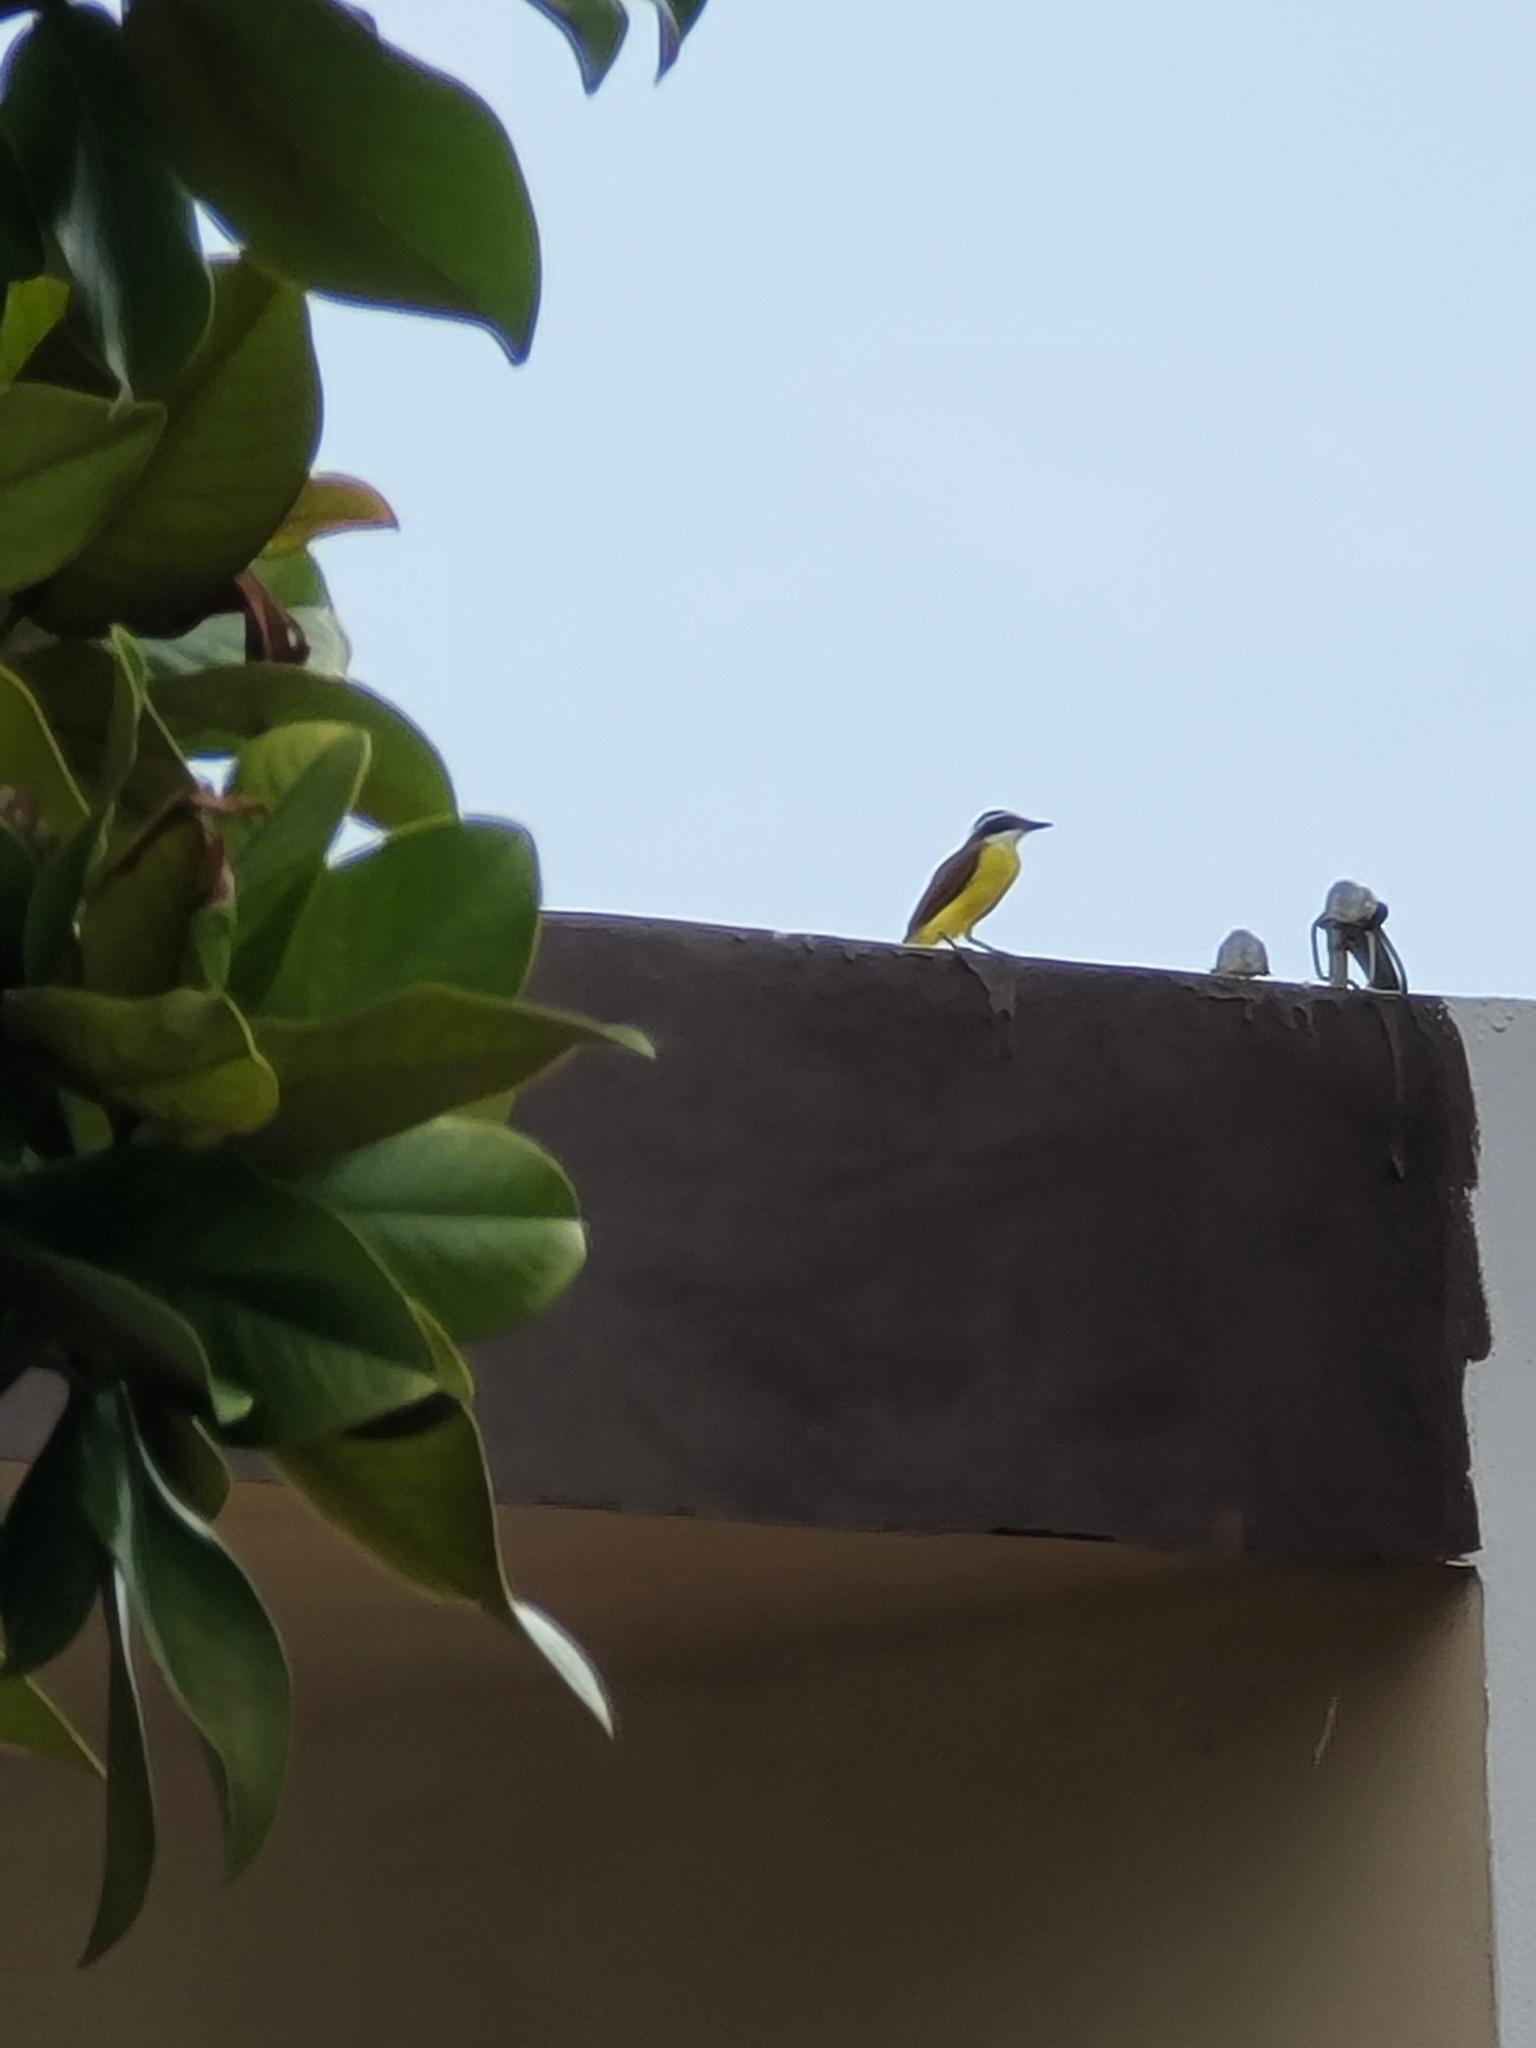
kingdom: Animalia
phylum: Chordata
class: Aves
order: Passeriformes
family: Tyrannidae
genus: Pitangus
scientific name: Pitangus sulphuratus
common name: Great kiskadee
